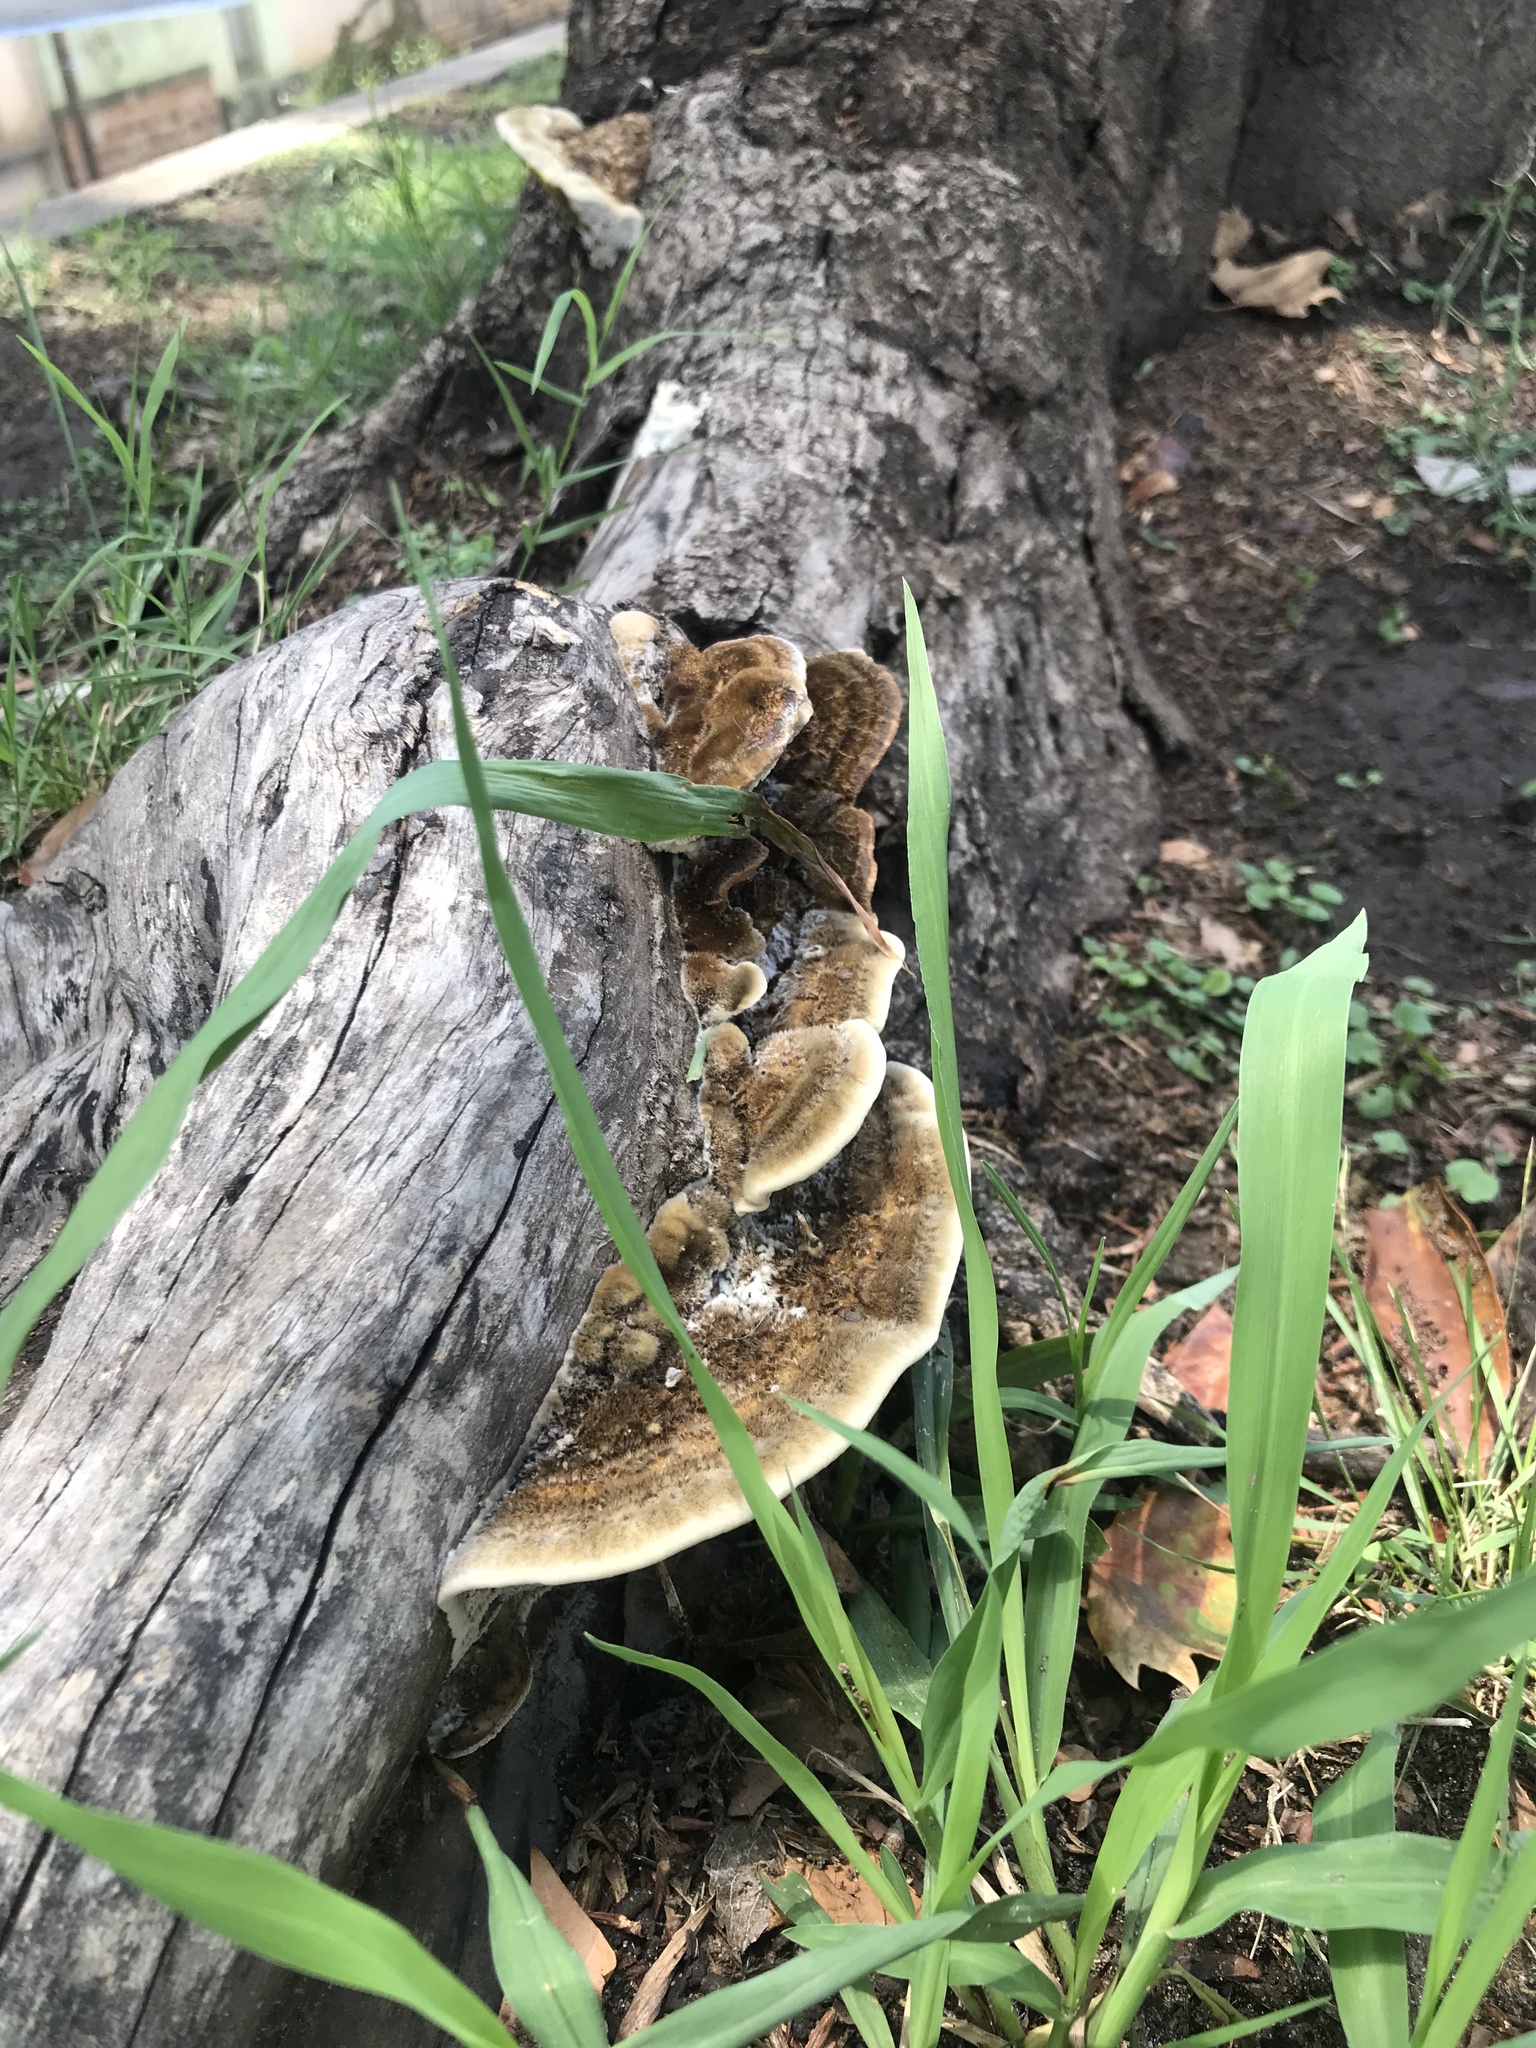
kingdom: Fungi
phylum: Basidiomycota
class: Agaricomycetes
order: Polyporales
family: Polyporaceae
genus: Coriolopsis
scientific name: Coriolopsis gallica
